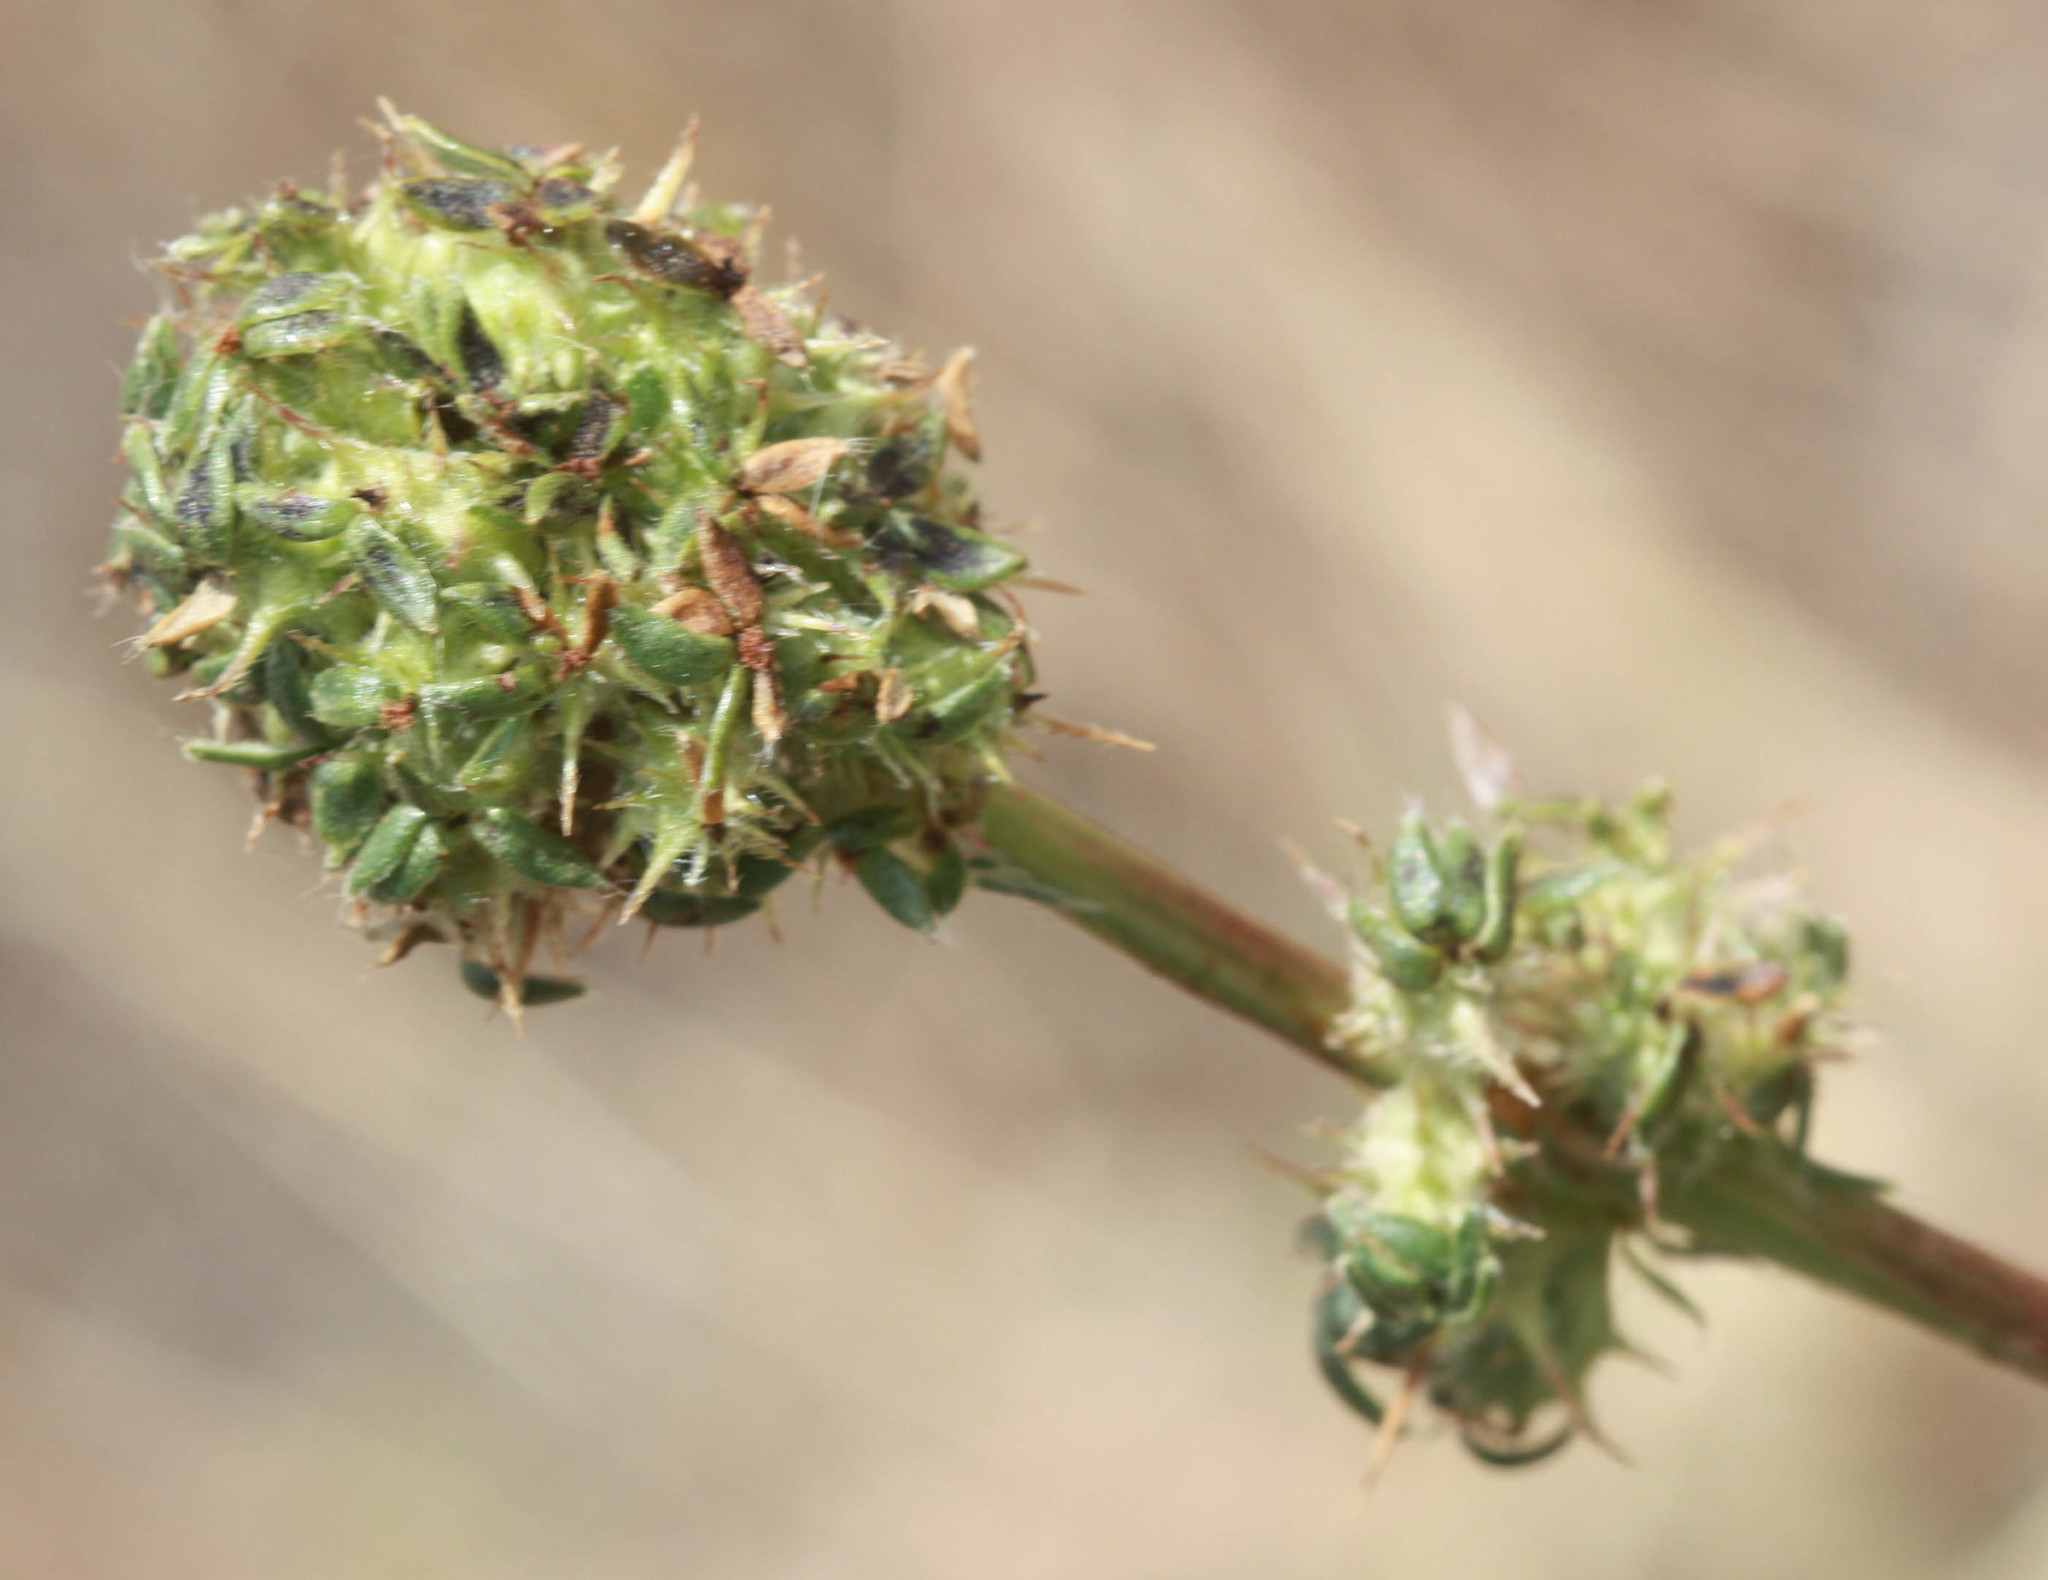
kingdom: Plantae
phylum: Tracheophyta
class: Magnoliopsida
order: Rosales
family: Rosaceae
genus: Acaena
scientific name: Acaena pinnatifida
